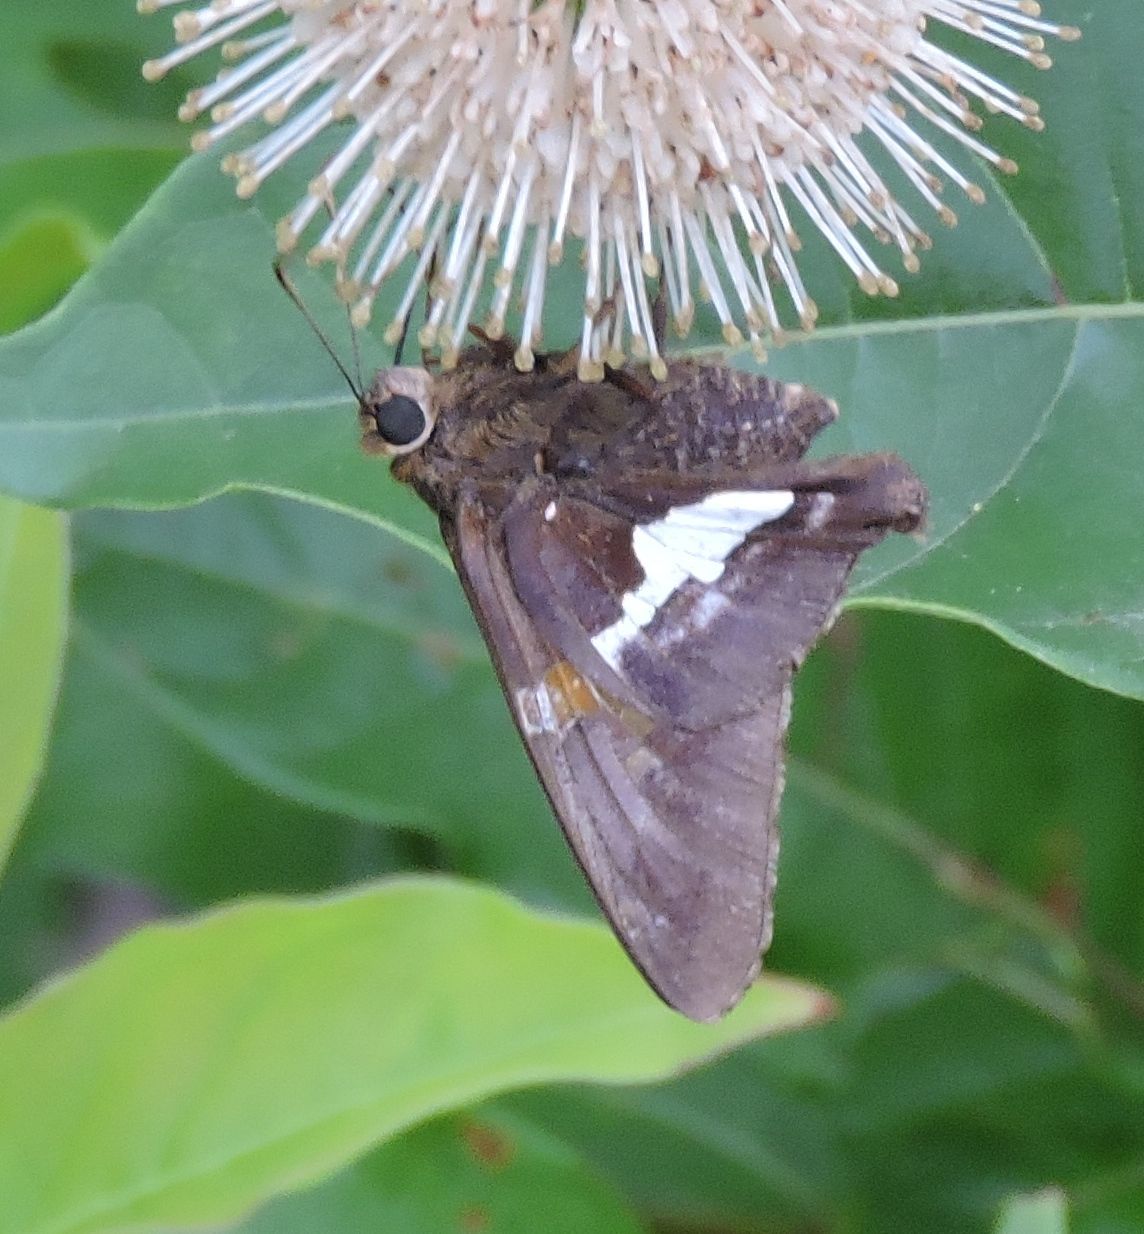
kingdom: Animalia
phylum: Arthropoda
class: Insecta
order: Lepidoptera
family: Hesperiidae
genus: Epargyreus
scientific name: Epargyreus clarus
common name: Silver-spotted skipper
